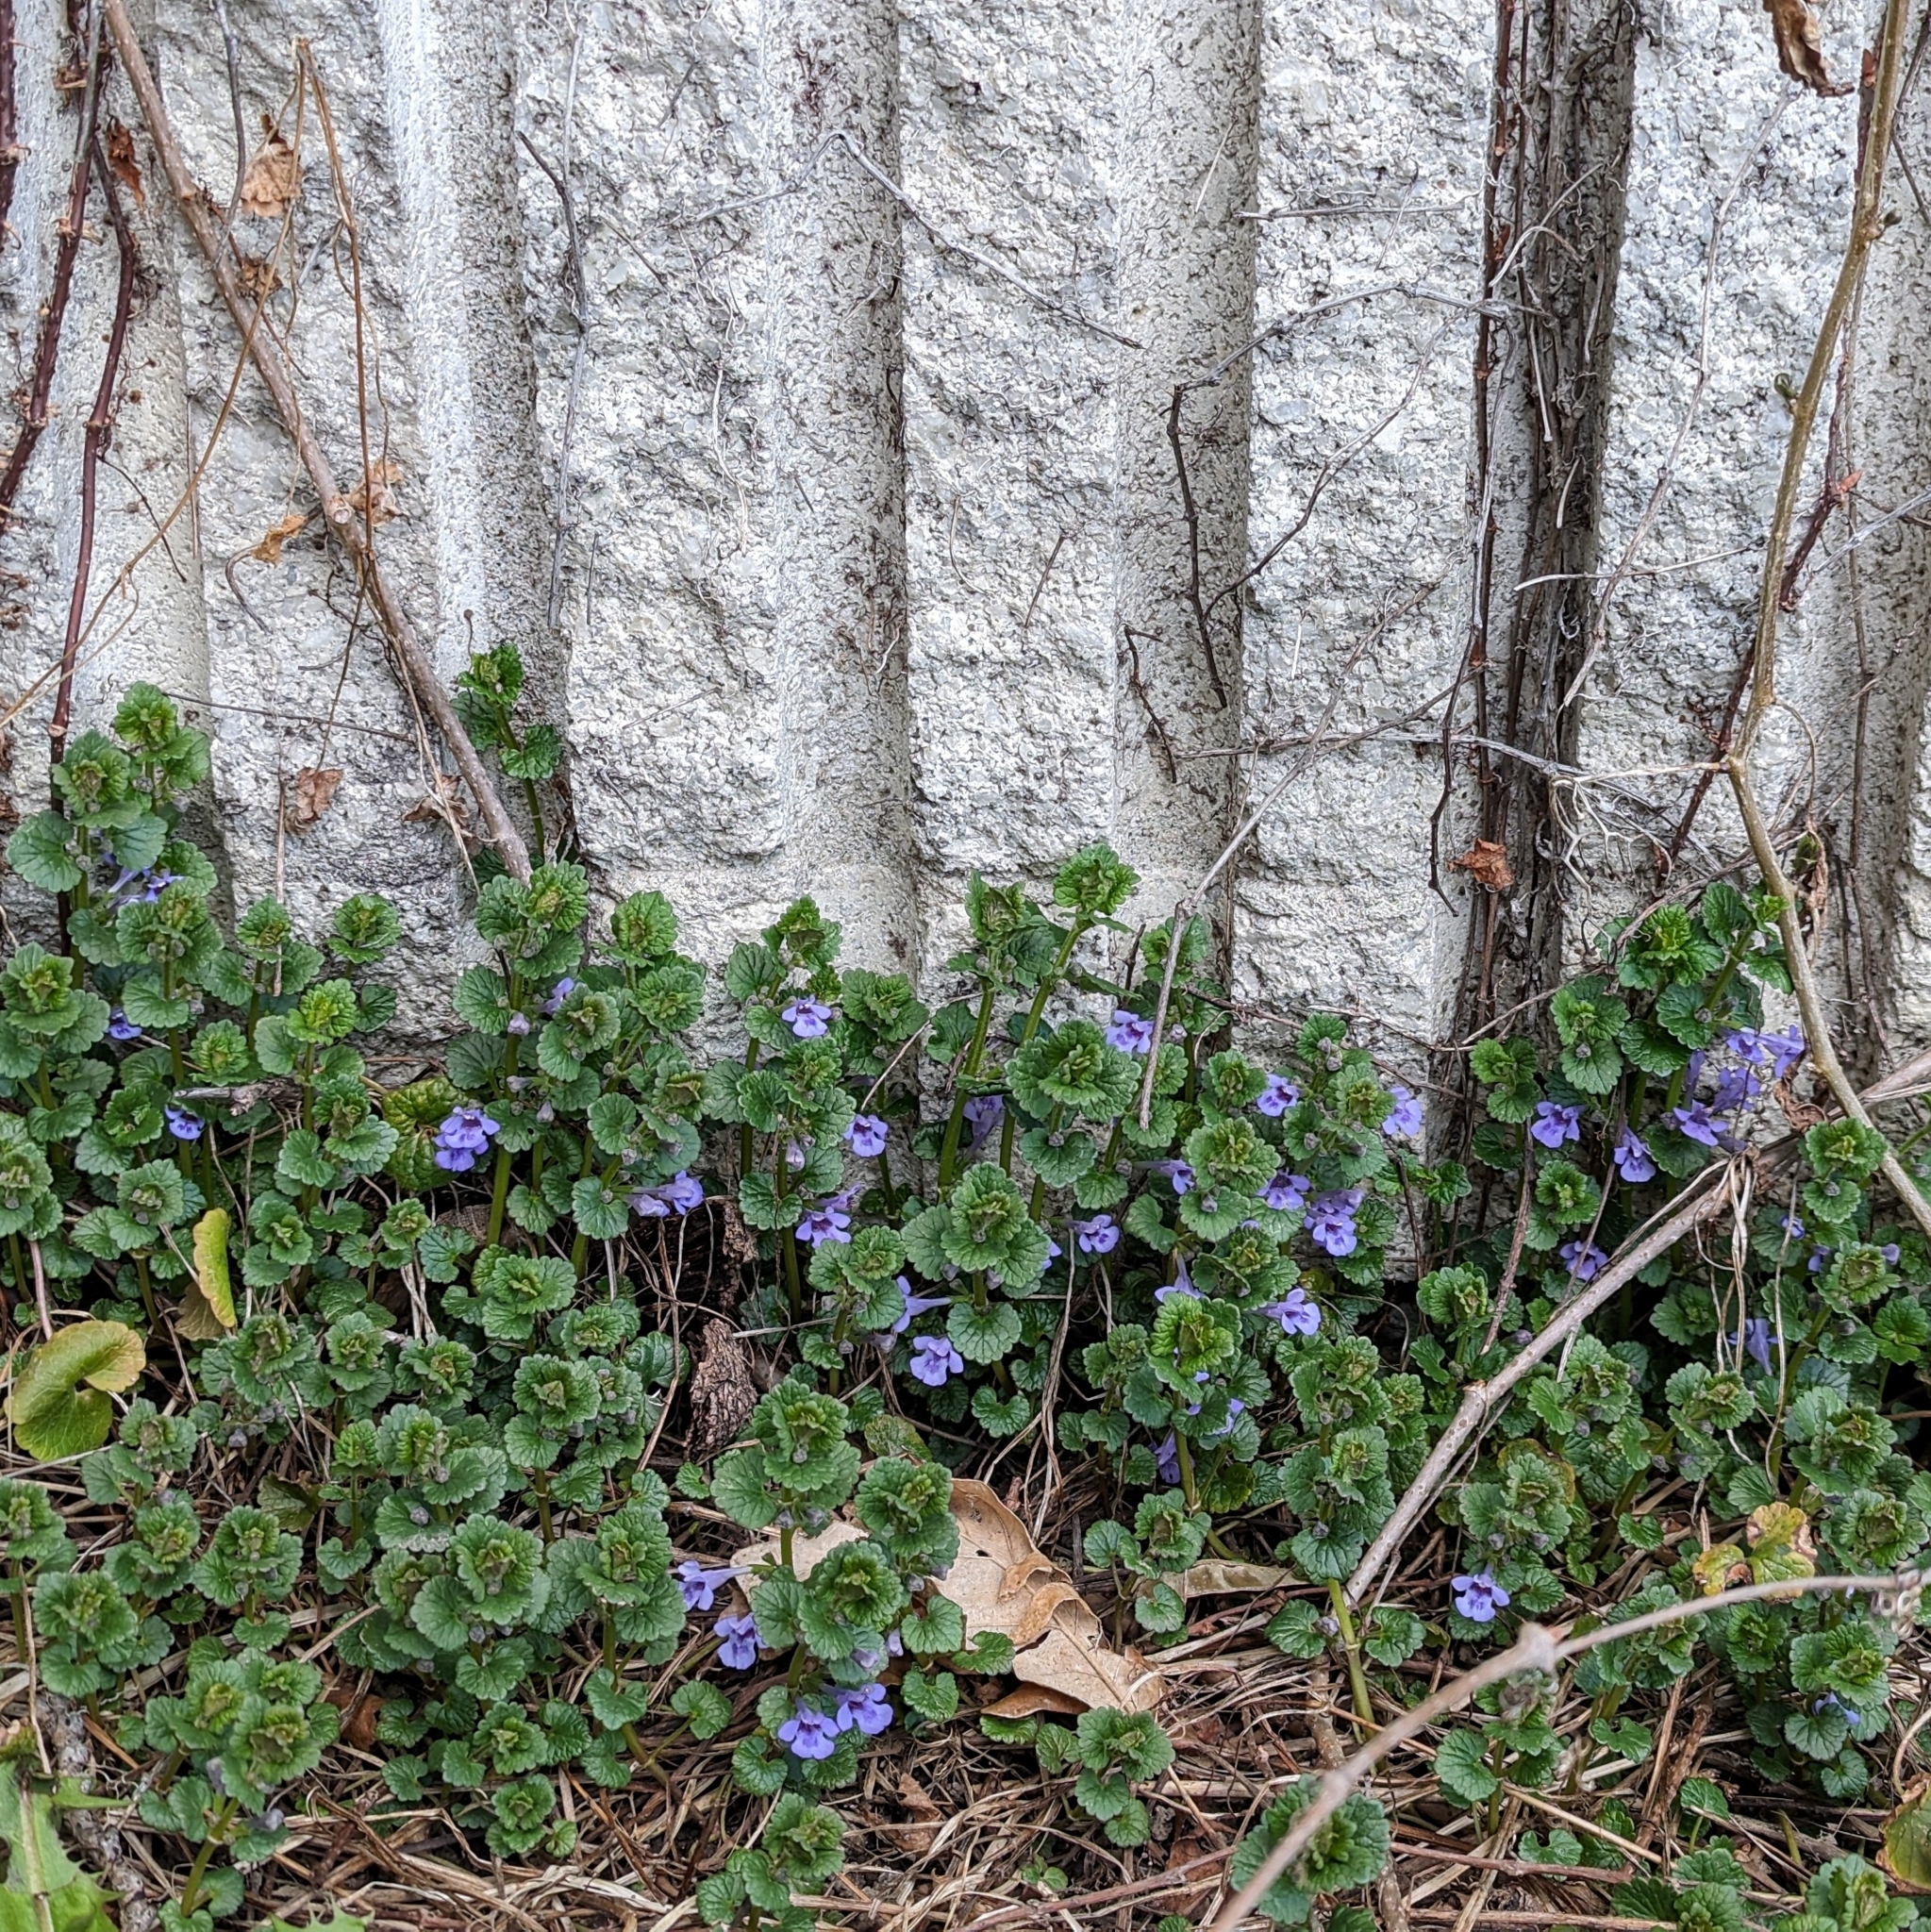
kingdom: Plantae
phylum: Tracheophyta
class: Magnoliopsida
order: Lamiales
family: Lamiaceae
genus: Glechoma
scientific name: Glechoma hederacea
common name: Ground ivy
